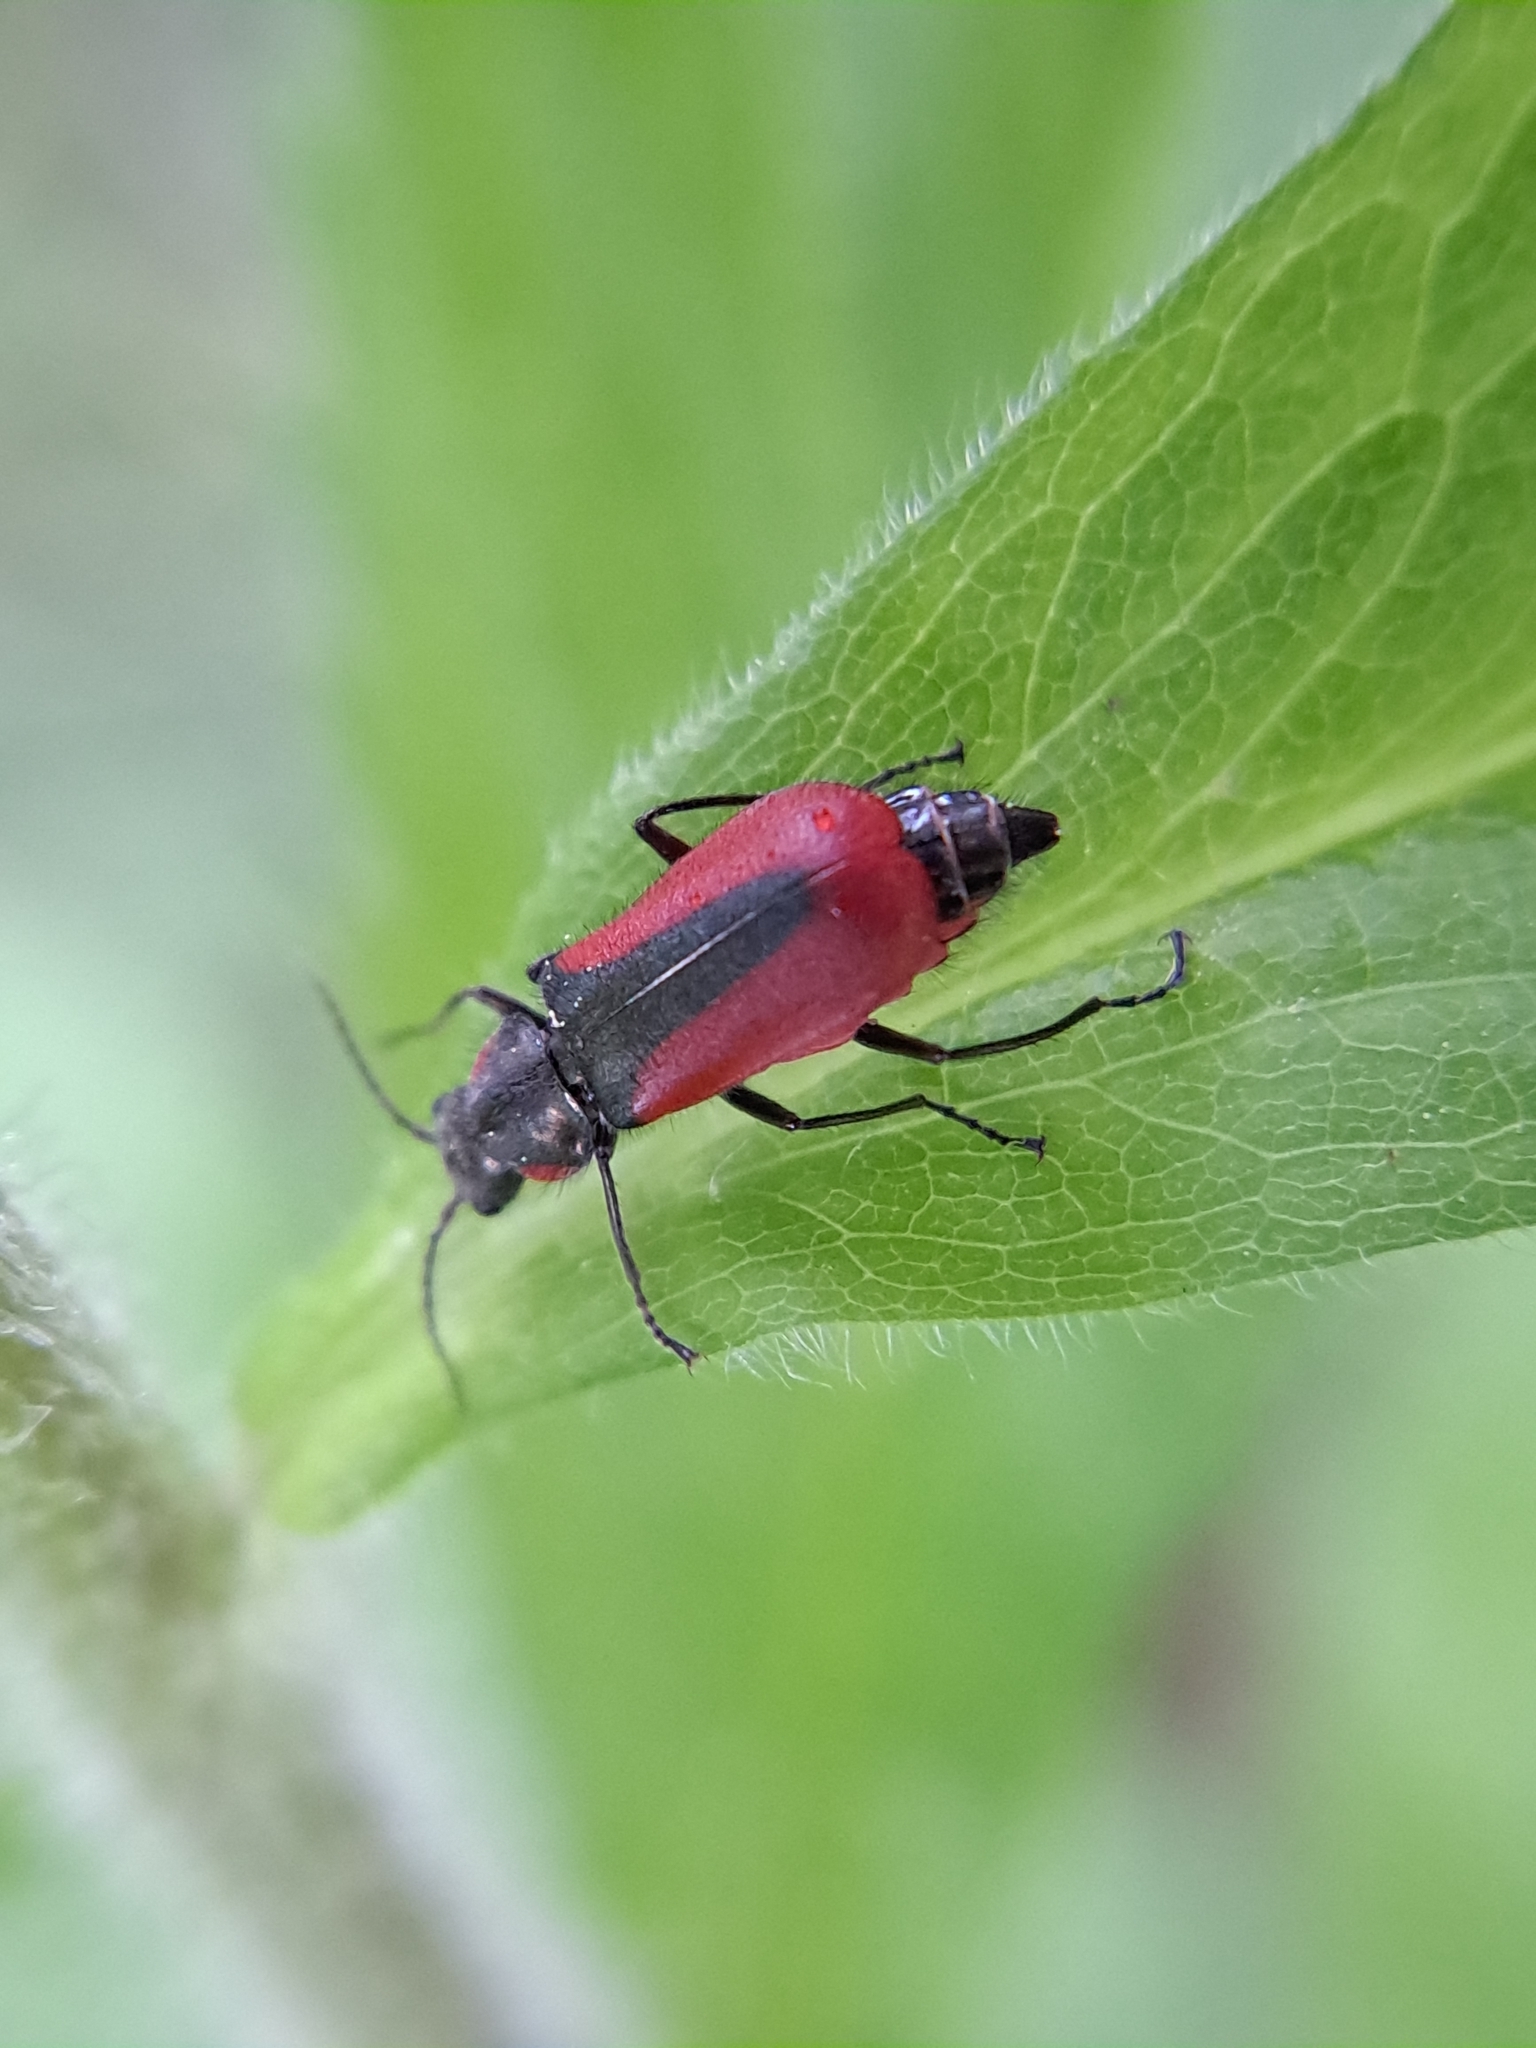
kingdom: Animalia
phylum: Arthropoda
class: Insecta
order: Coleoptera
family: Melyridae
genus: Malachius
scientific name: Malachius aeneus
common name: Scarlet malachite beetle
